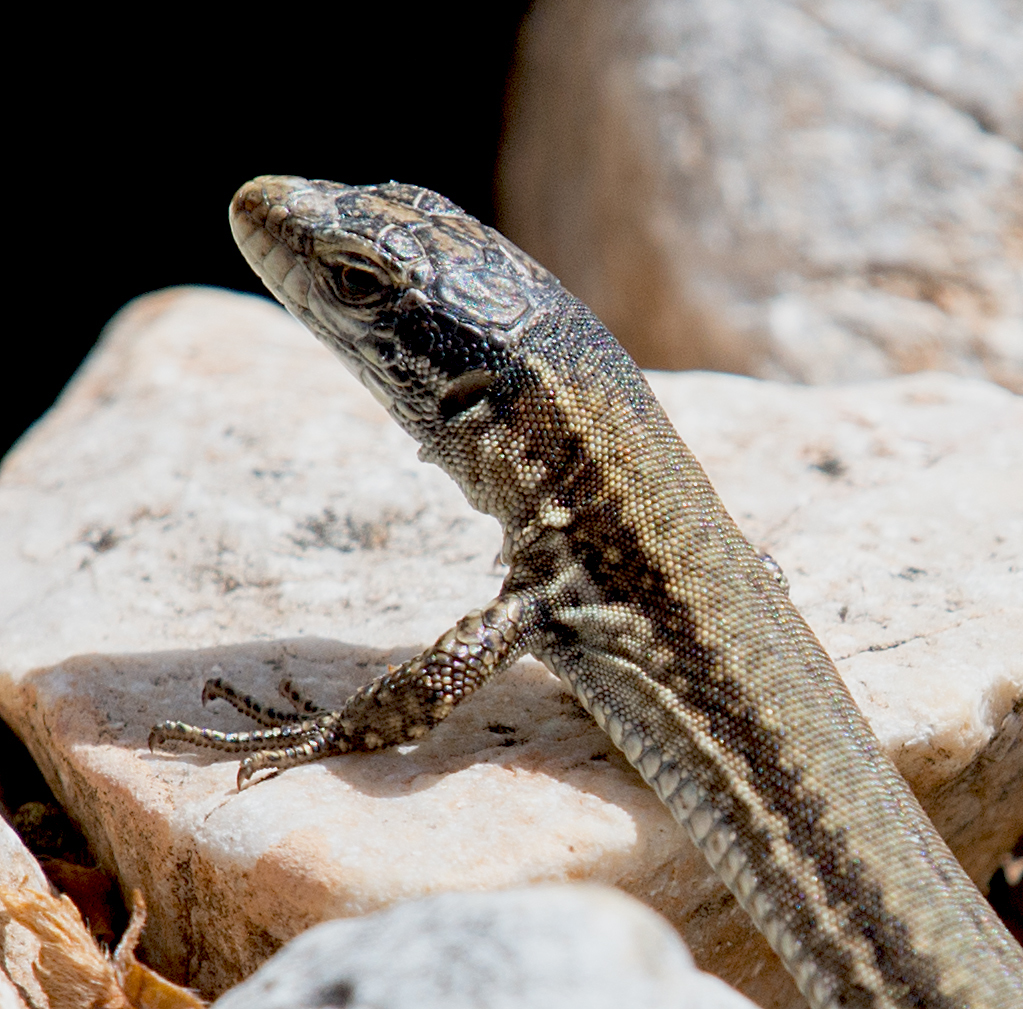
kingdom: Animalia
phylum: Chordata
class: Squamata
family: Lacertidae
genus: Podarcis
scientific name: Podarcis muralis
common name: Common wall lizard
